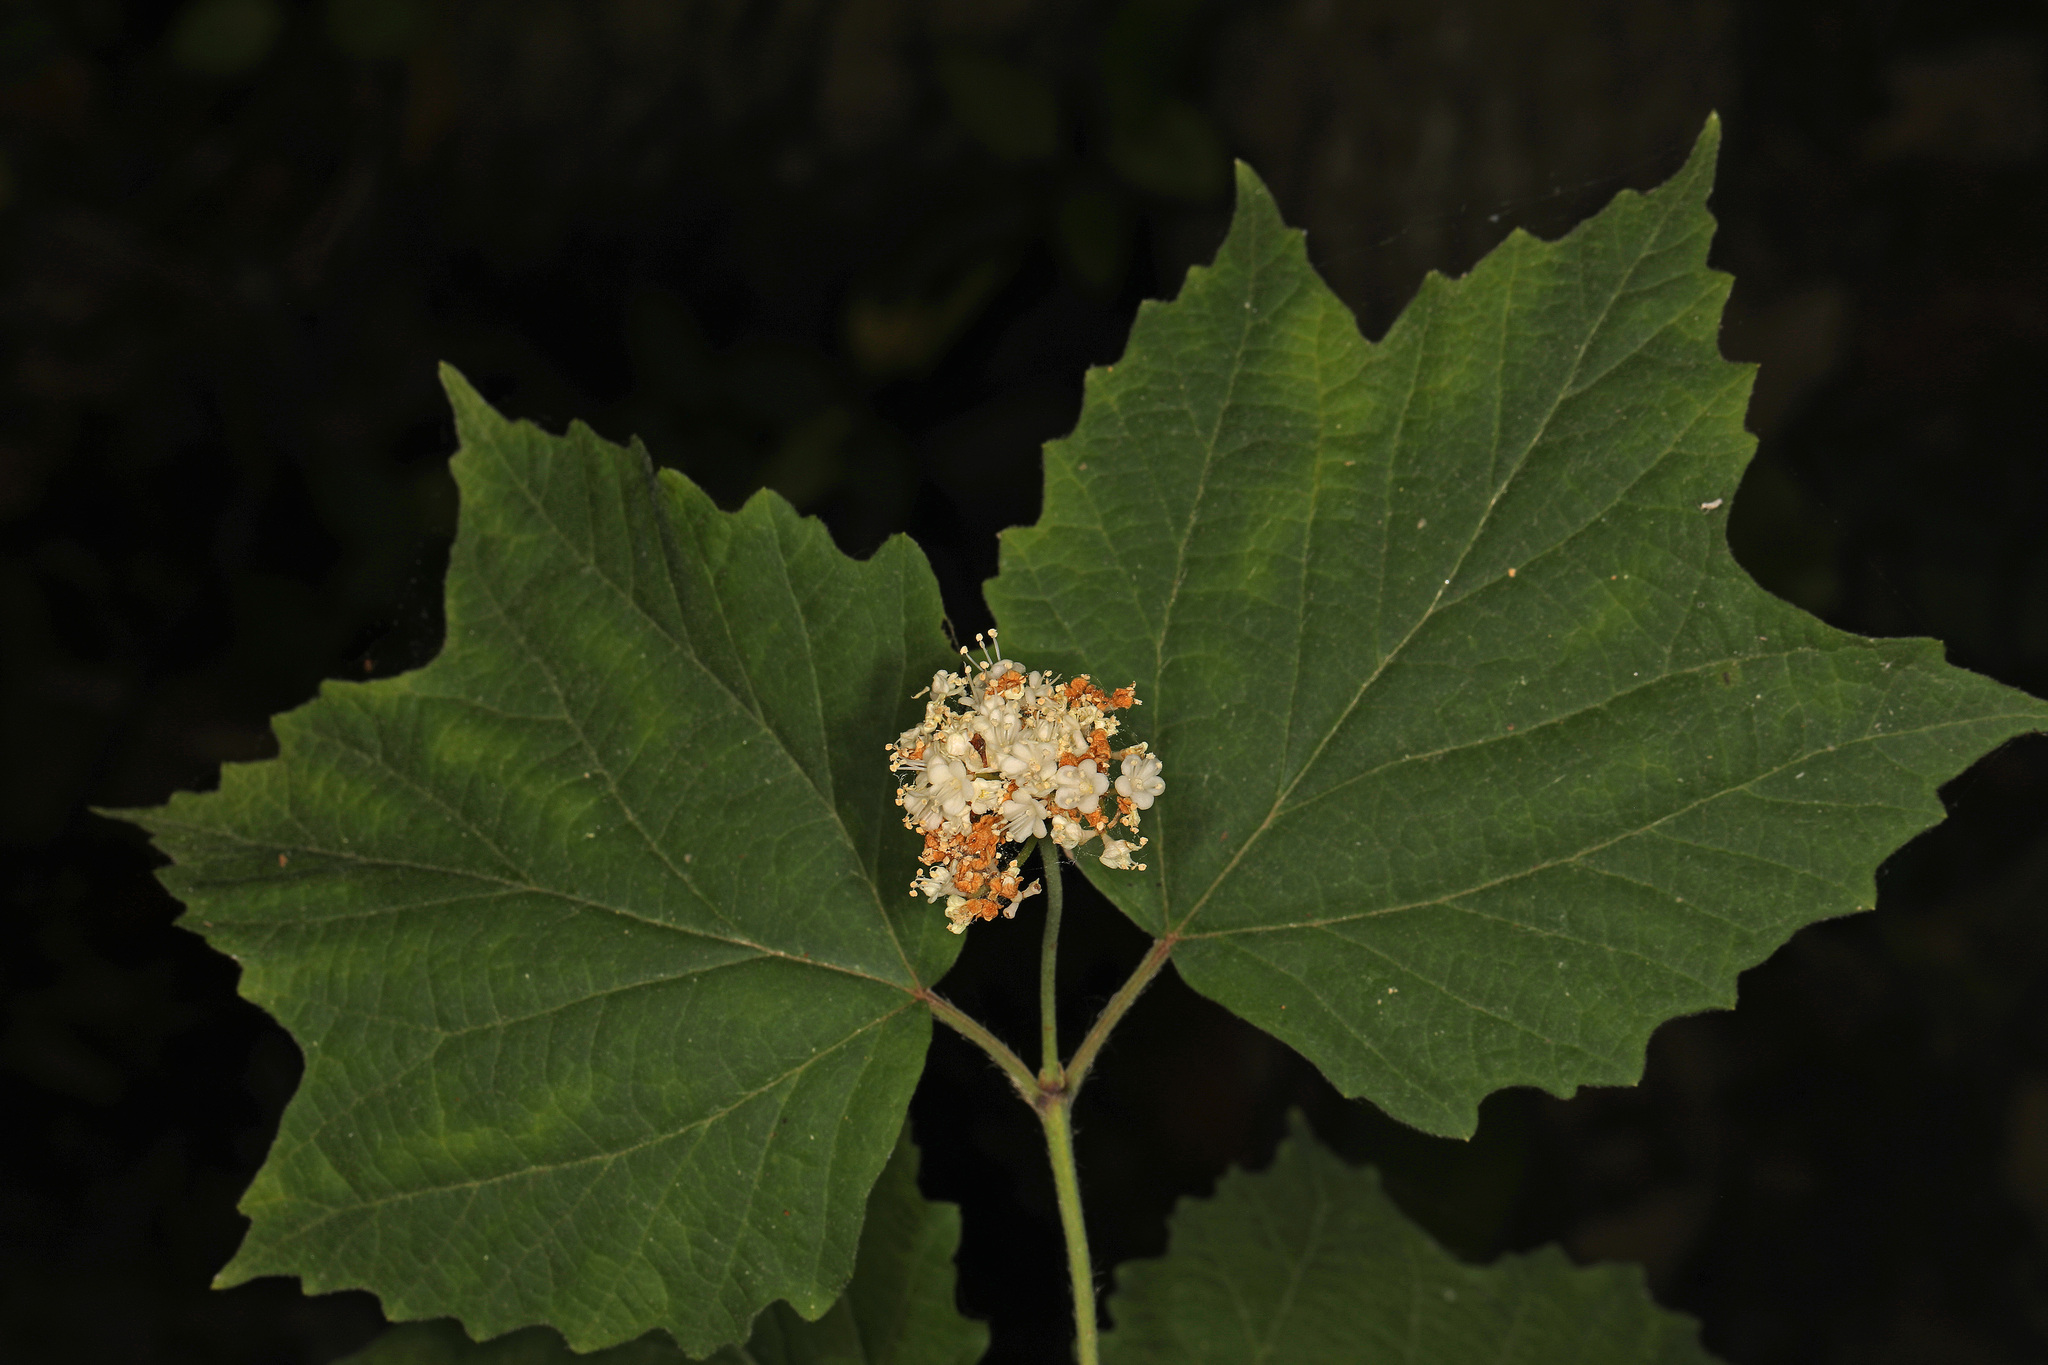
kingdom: Plantae
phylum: Tracheophyta
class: Magnoliopsida
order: Dipsacales
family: Viburnaceae
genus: Viburnum
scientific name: Viburnum acerifolium
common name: Dockmackie
